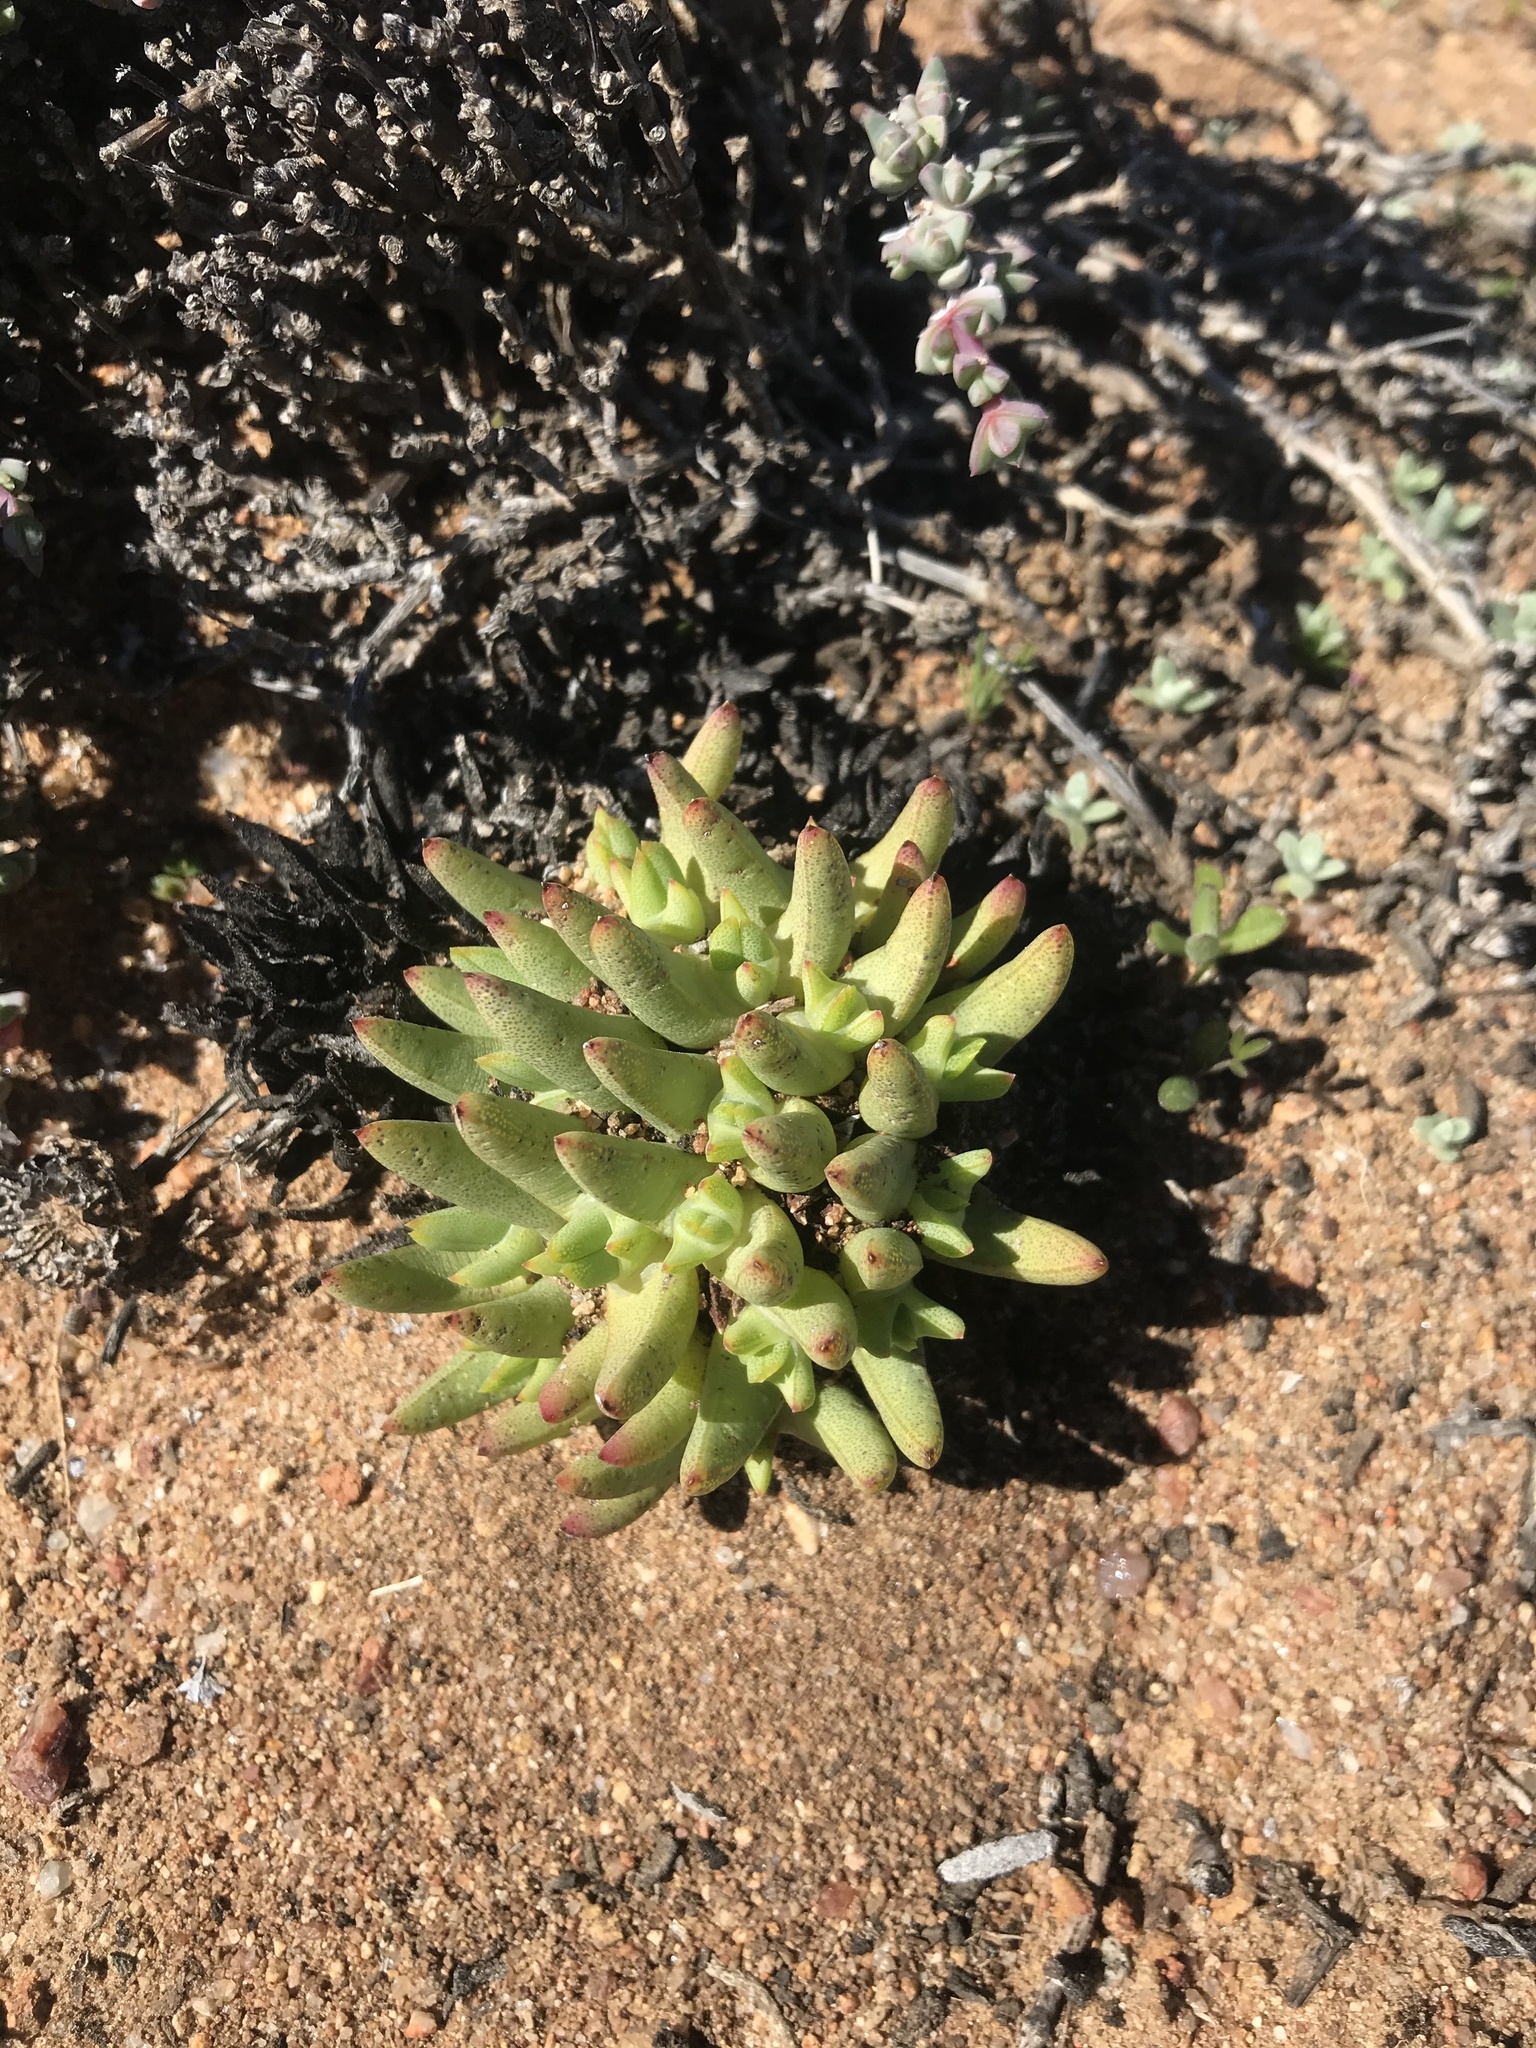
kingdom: Plantae
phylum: Tracheophyta
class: Magnoliopsida
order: Caryophyllales
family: Aizoaceae
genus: Cheiridopsis
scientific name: Cheiridopsis imitans
